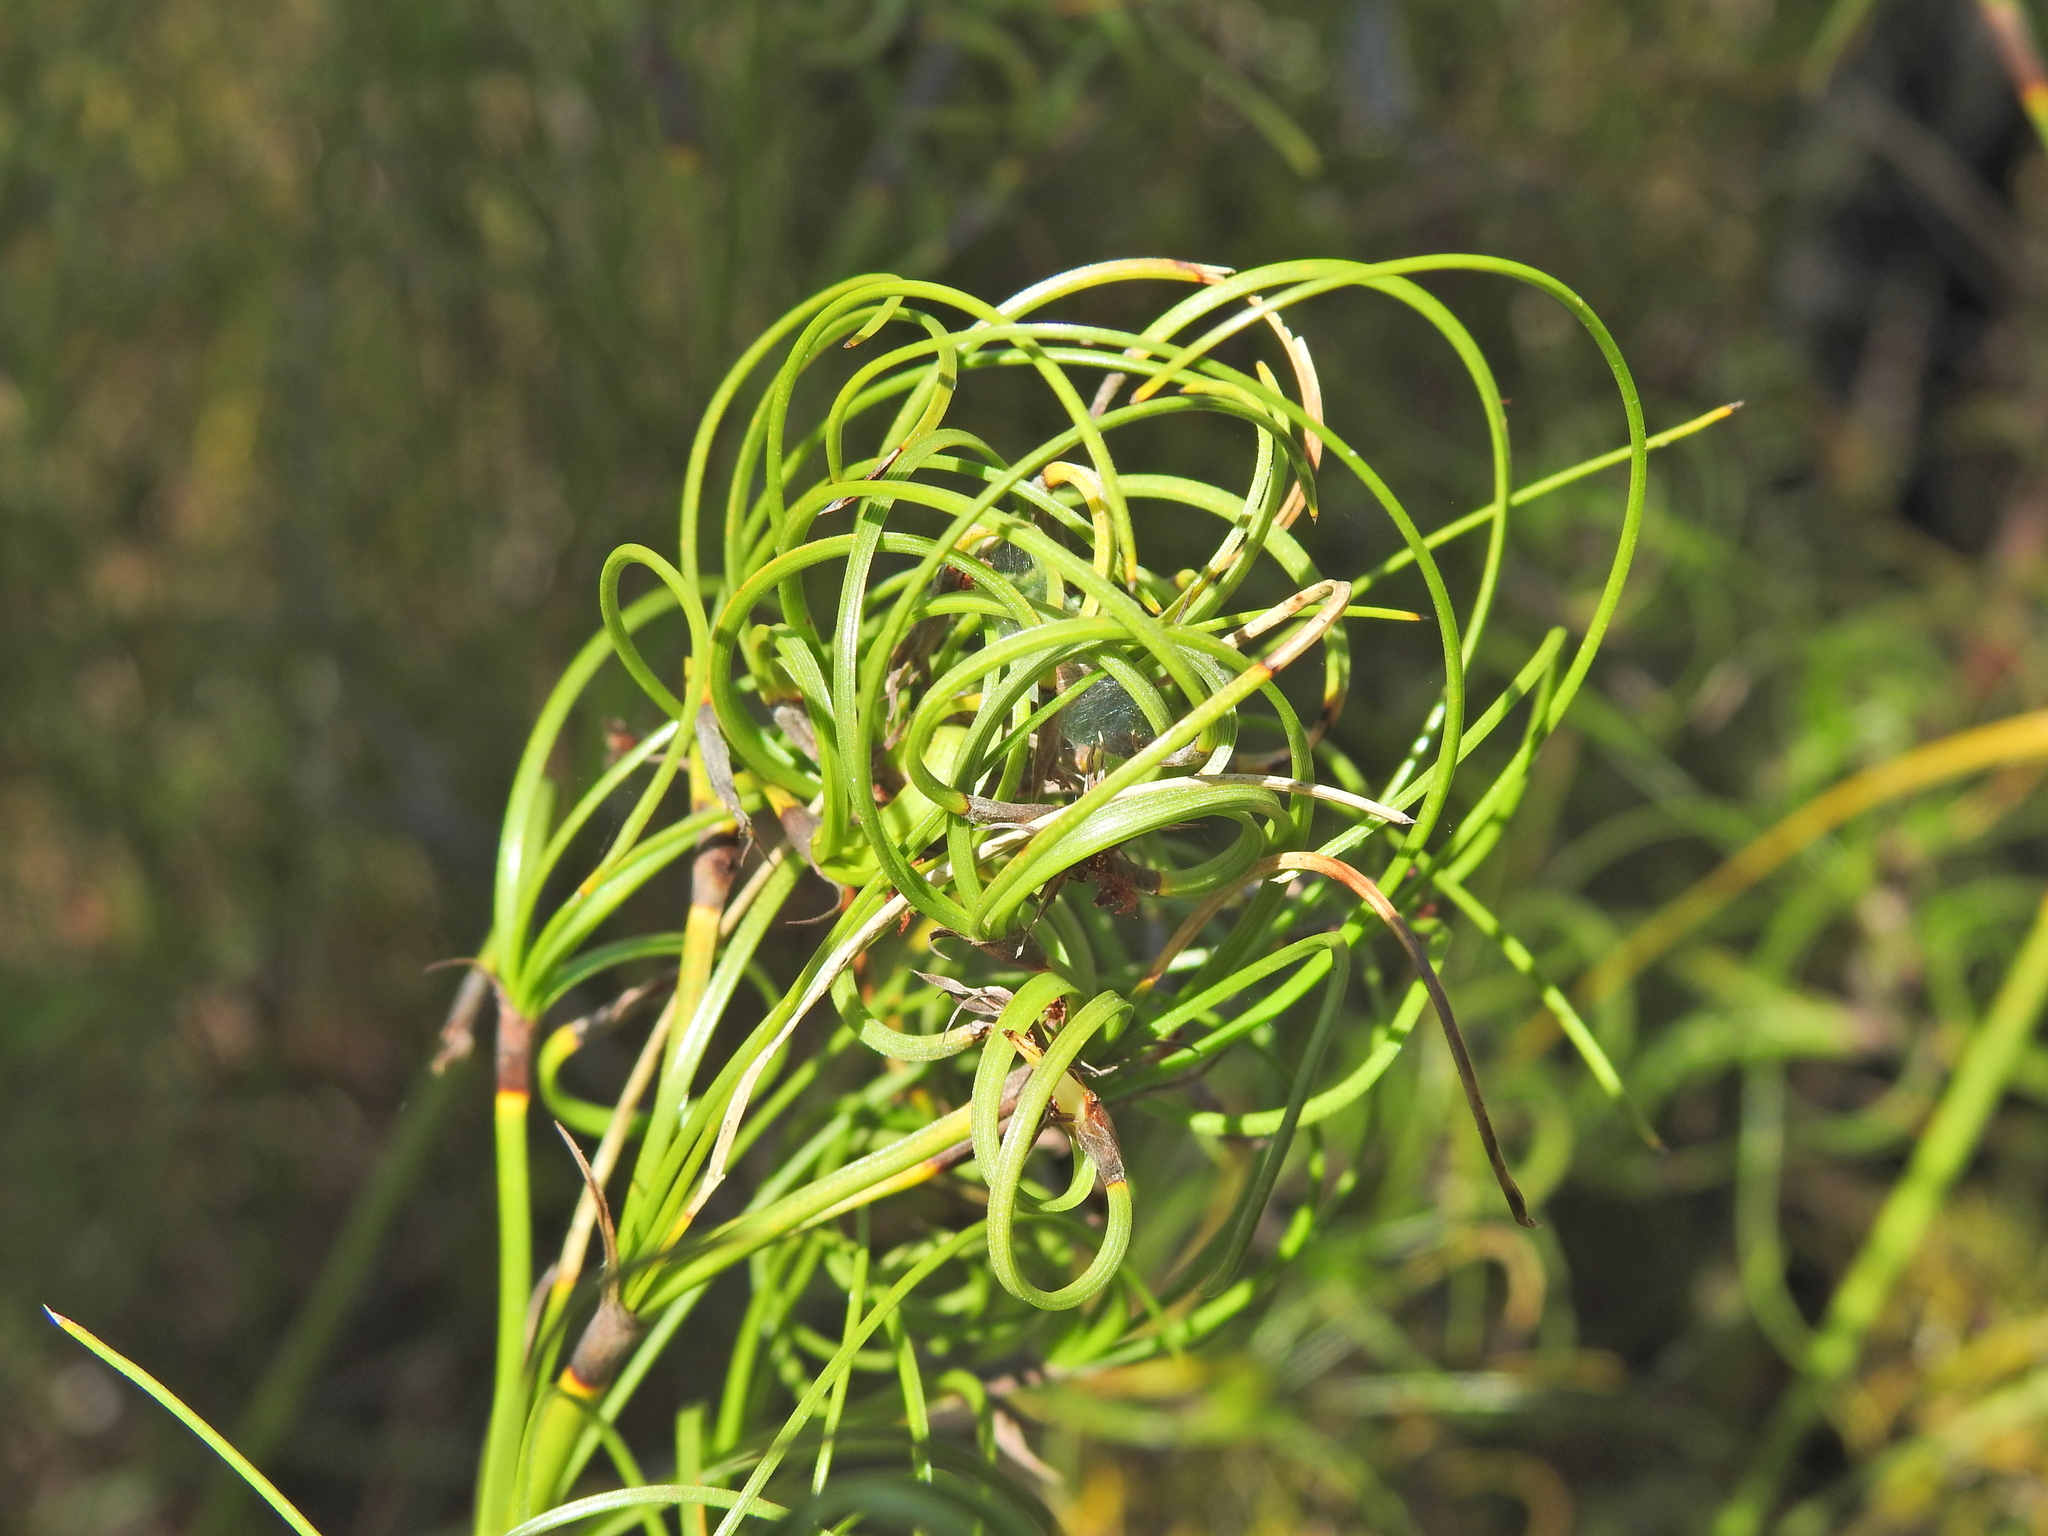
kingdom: Plantae
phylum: Tracheophyta
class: Liliopsida
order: Poales
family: Cyperaceae
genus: Caustis
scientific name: Caustis recurvata
